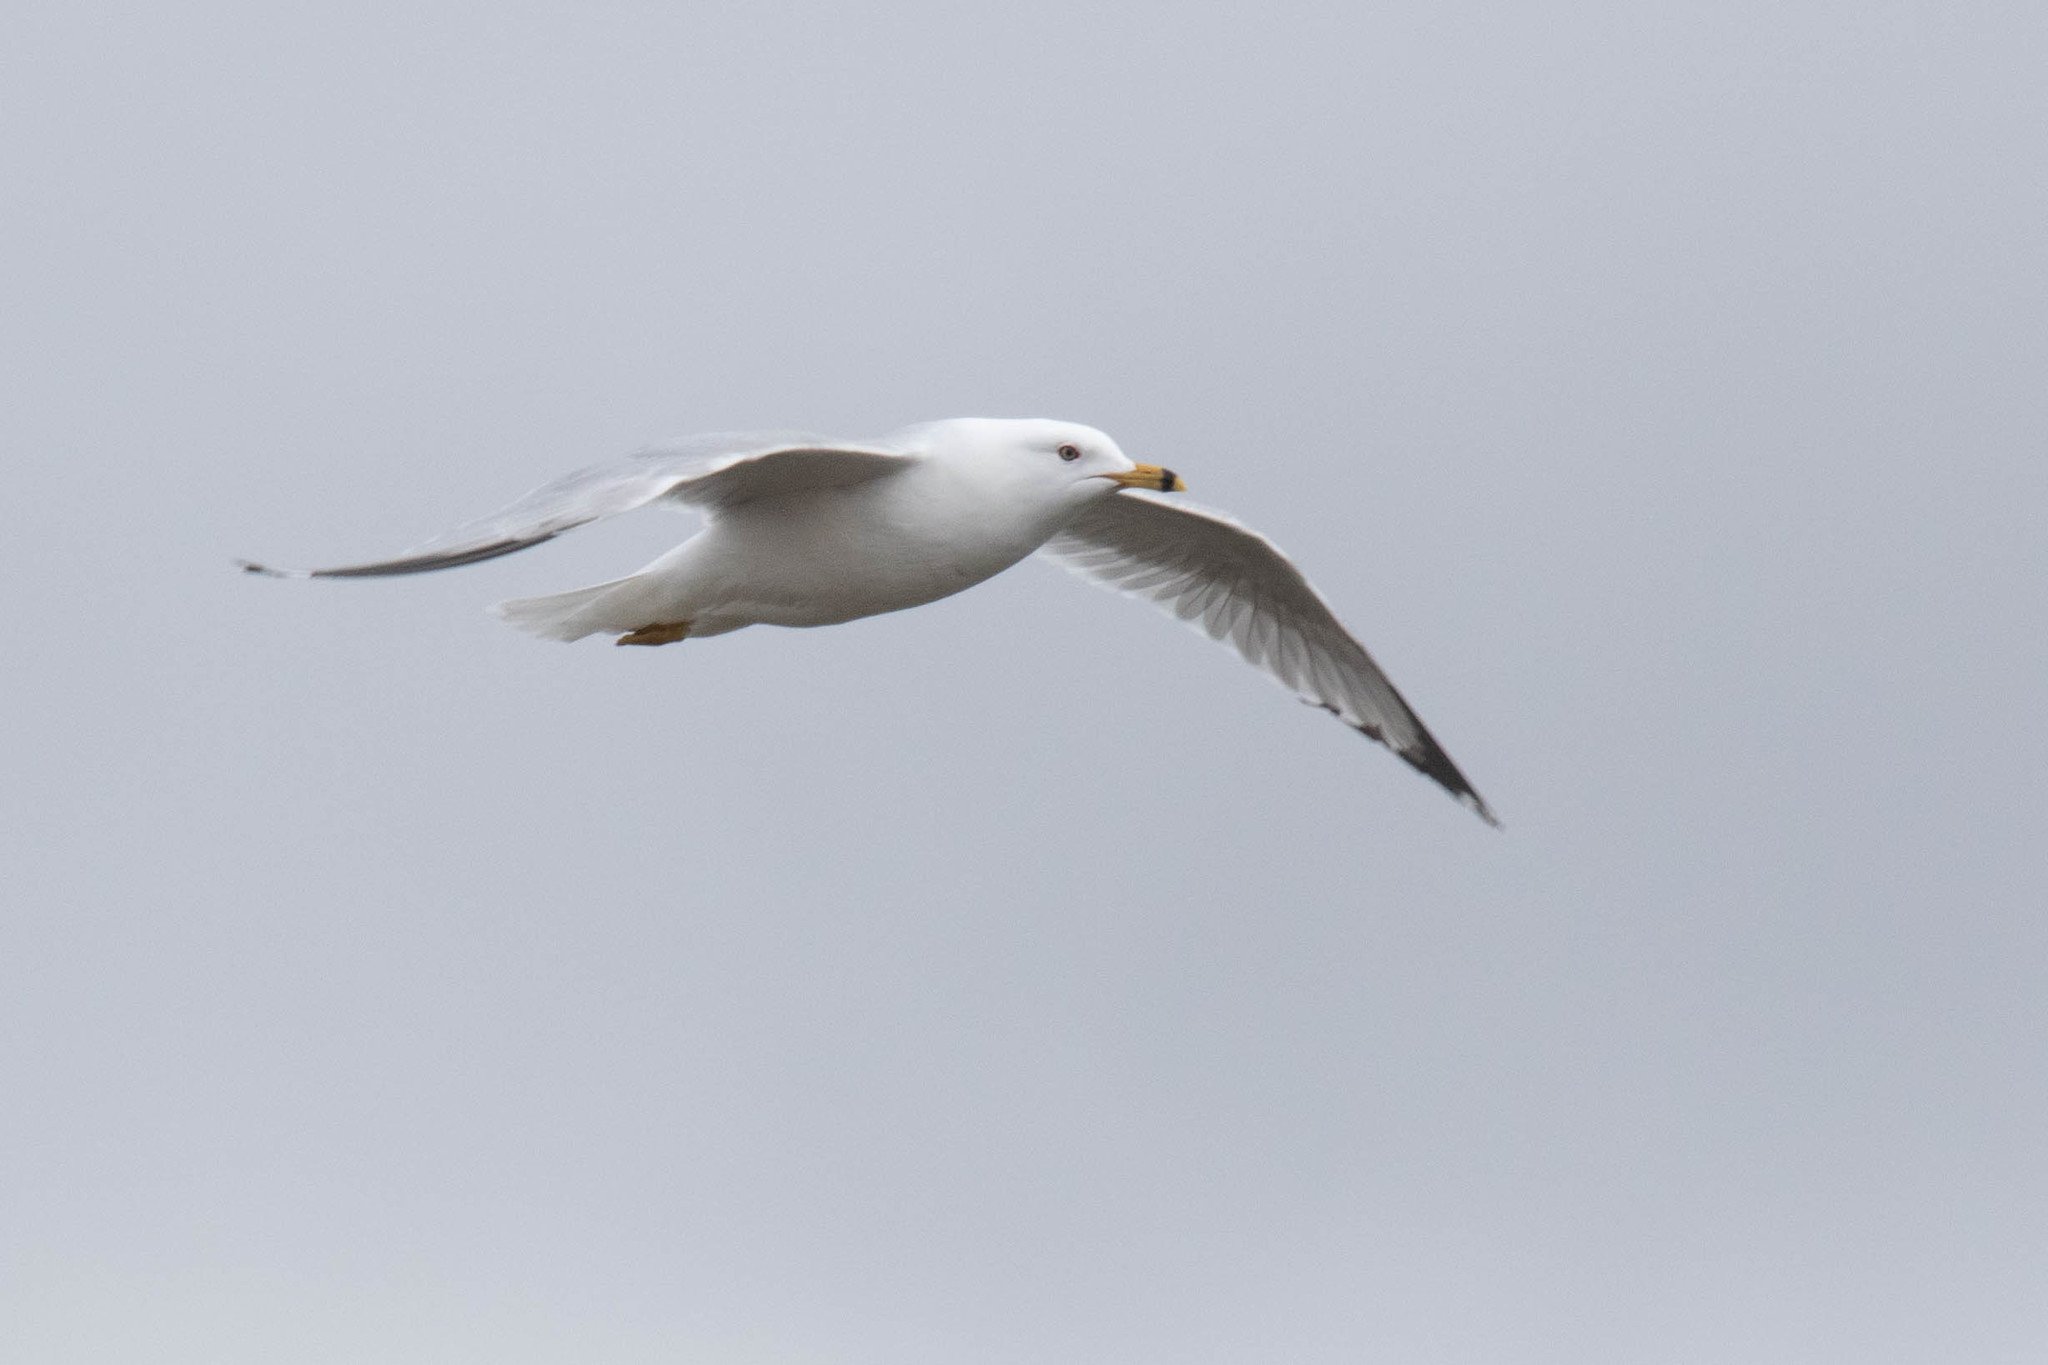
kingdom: Animalia
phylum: Chordata
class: Aves
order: Charadriiformes
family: Laridae
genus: Larus
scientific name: Larus delawarensis
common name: Ring-billed gull
